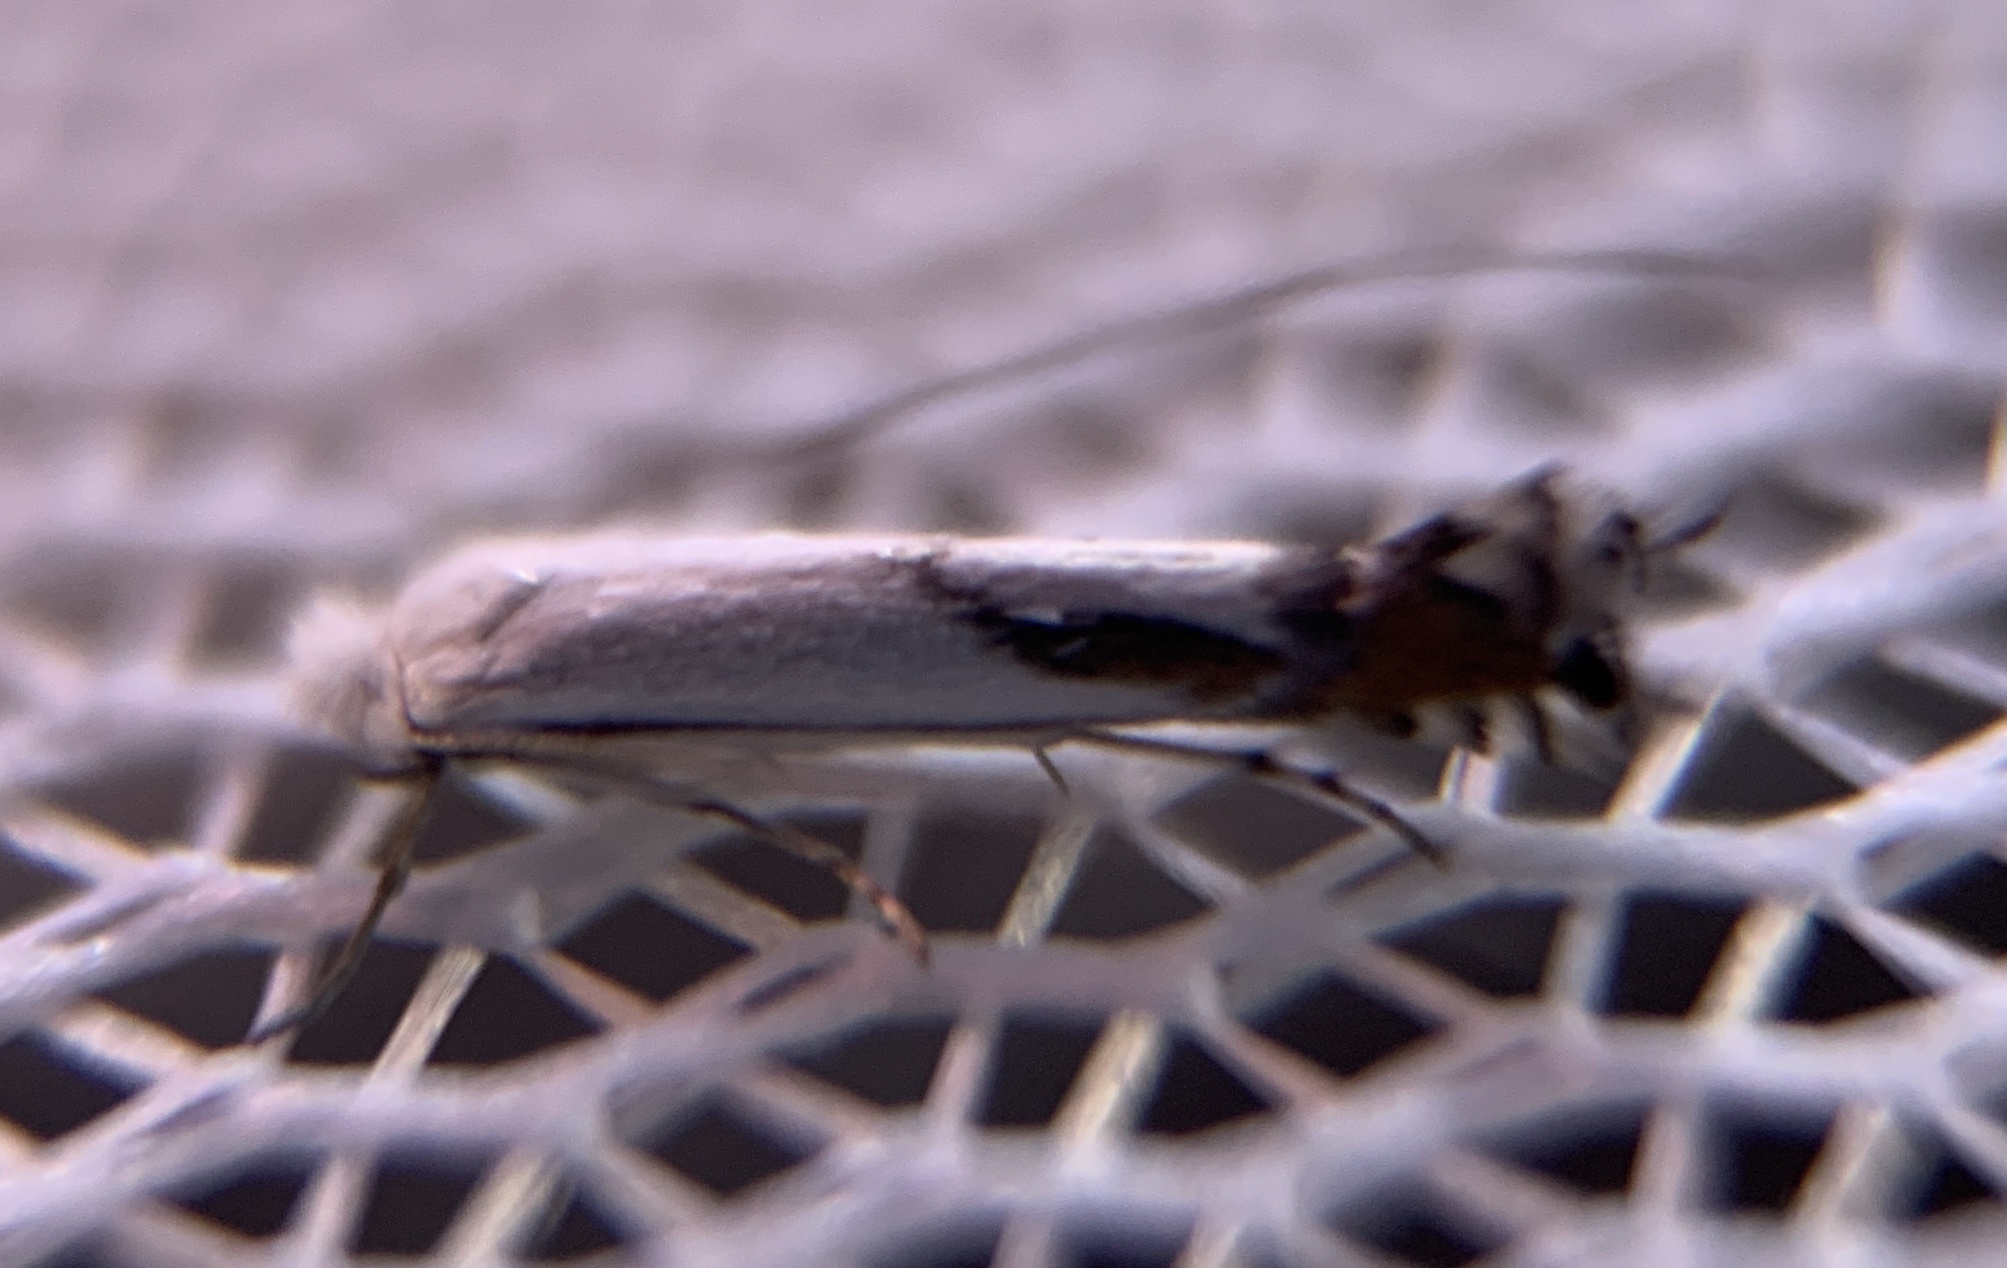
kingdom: Animalia
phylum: Arthropoda
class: Insecta
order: Lepidoptera
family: Lyonetiidae
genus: Lyonetia
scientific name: Lyonetia latistrigella
